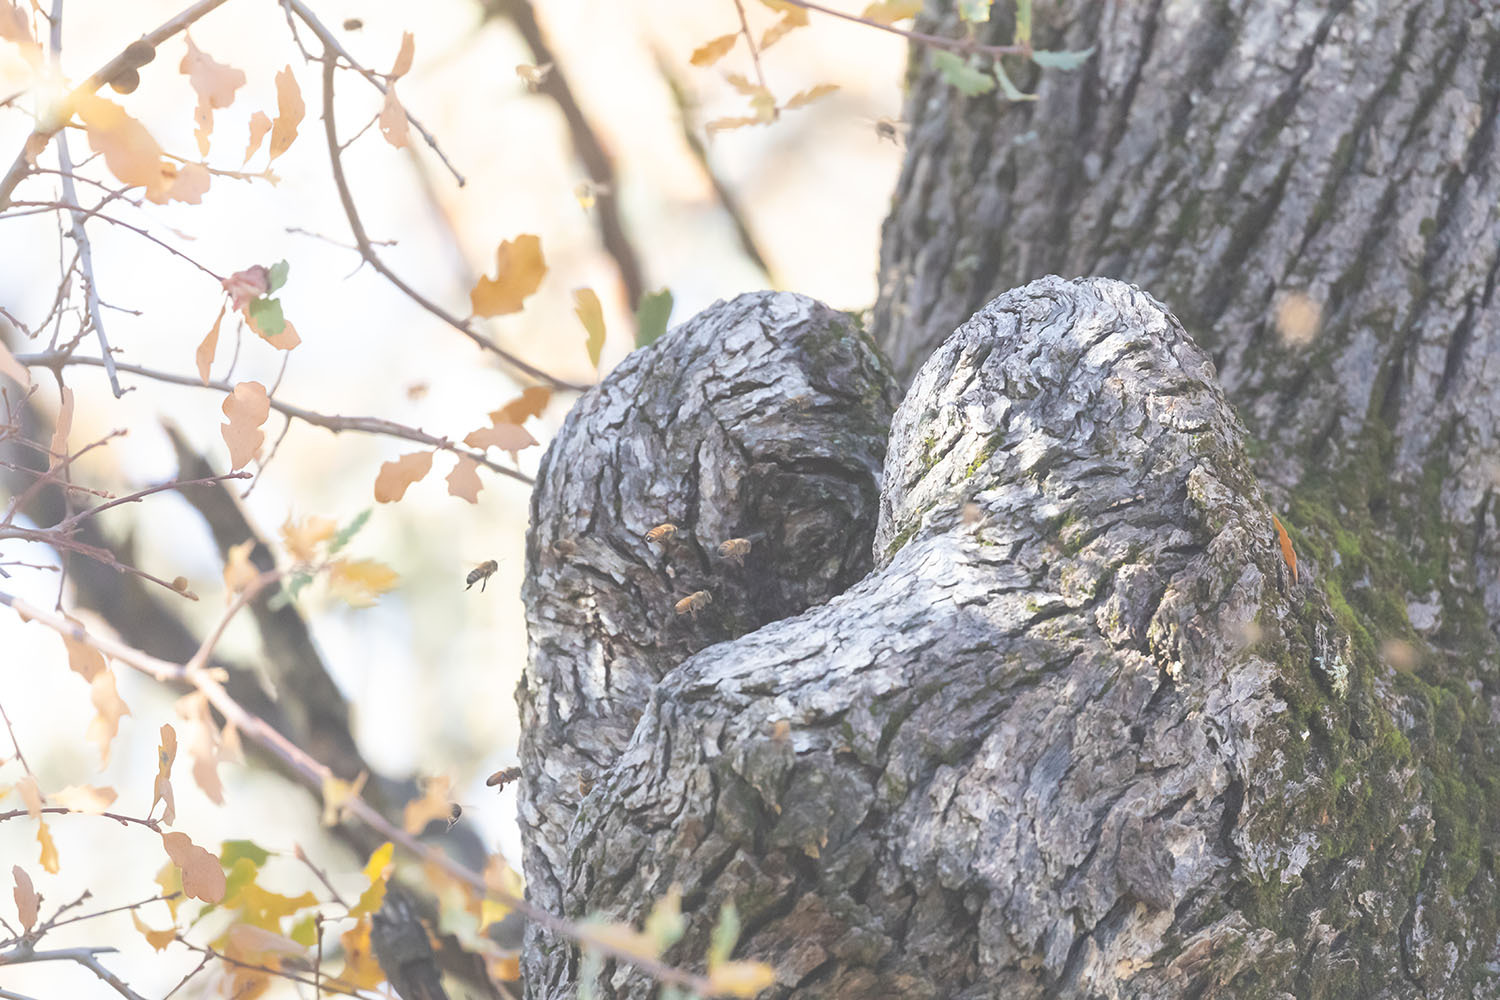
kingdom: Animalia
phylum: Arthropoda
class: Insecta
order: Hymenoptera
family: Apidae
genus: Apis
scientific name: Apis mellifera
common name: Honey bee
